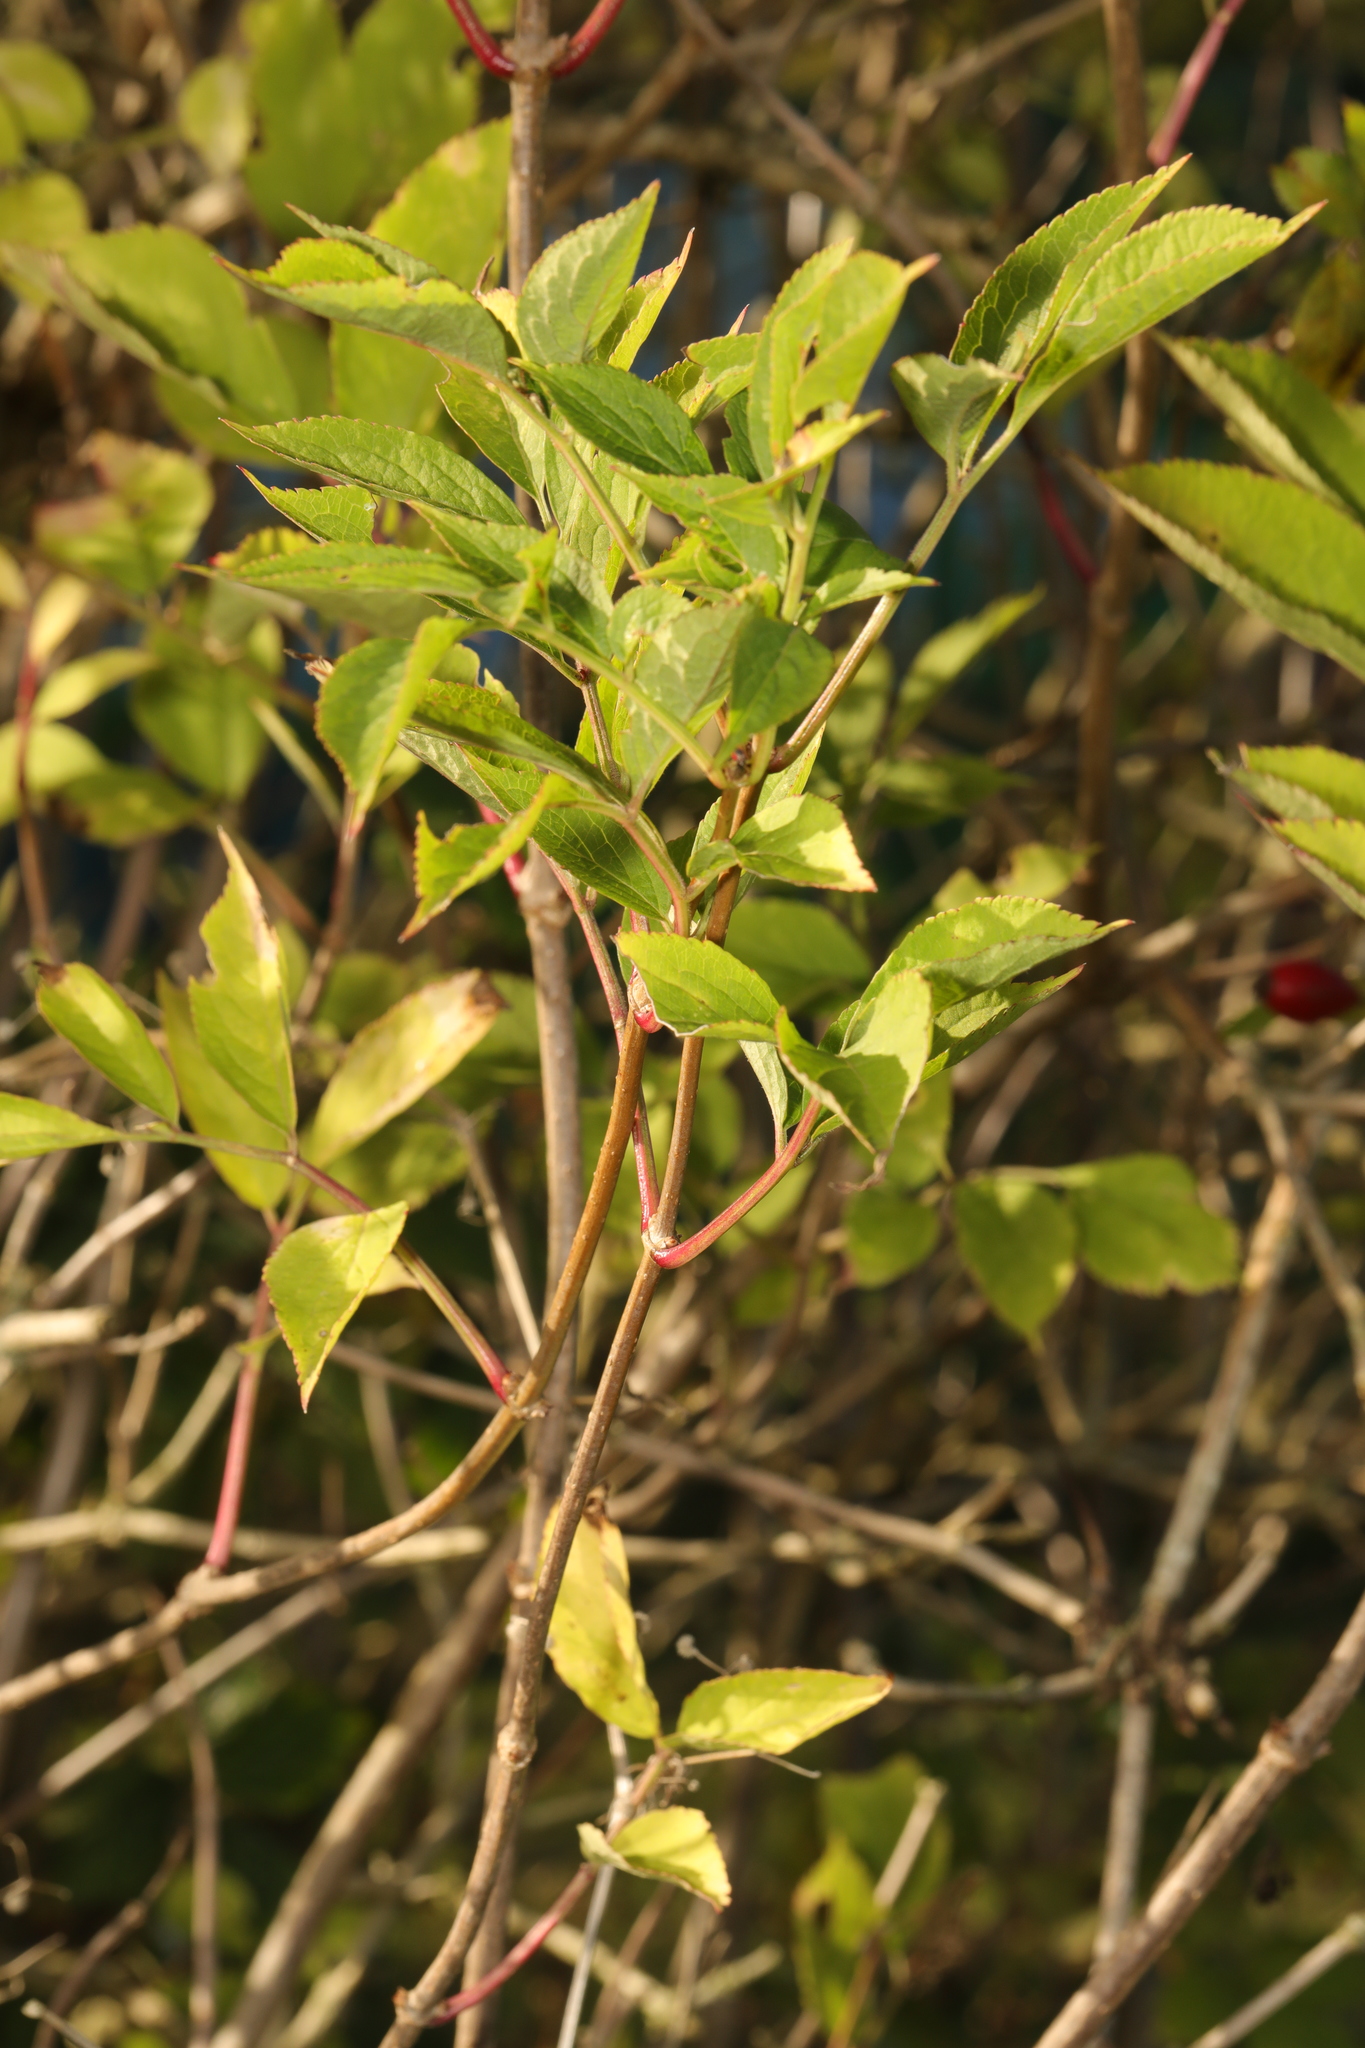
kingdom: Plantae
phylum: Tracheophyta
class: Magnoliopsida
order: Dipsacales
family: Viburnaceae
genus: Sambucus
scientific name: Sambucus nigra
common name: Elder
